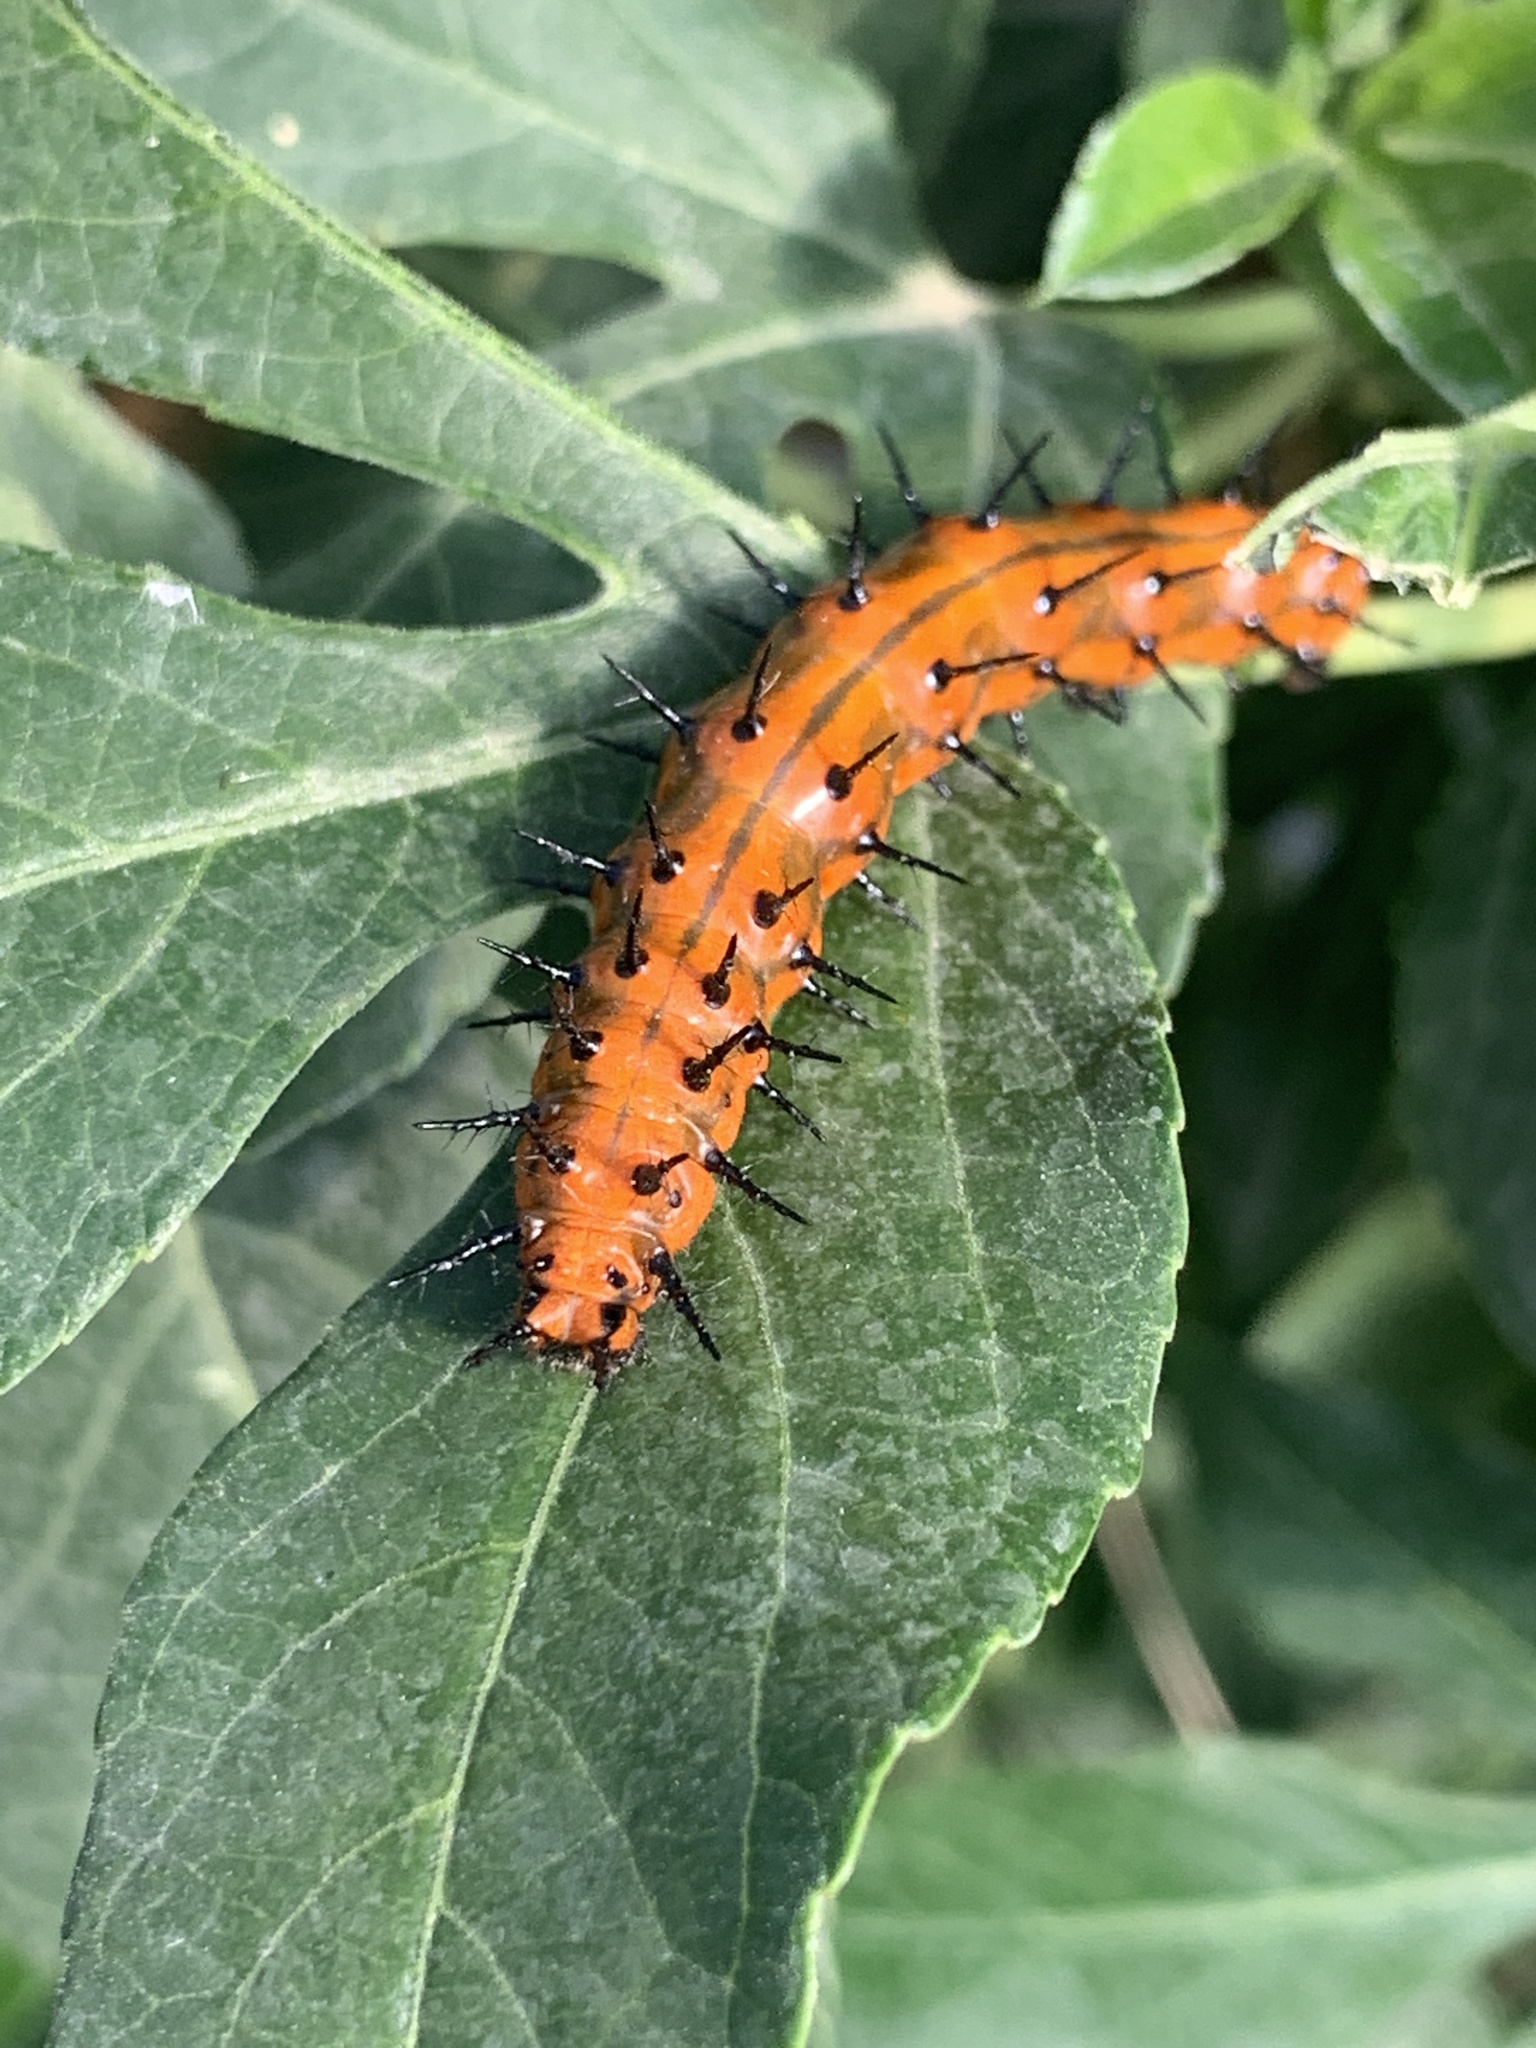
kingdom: Animalia
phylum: Arthropoda
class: Insecta
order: Lepidoptera
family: Nymphalidae
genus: Dione
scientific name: Dione vanillae
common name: Gulf fritillary
